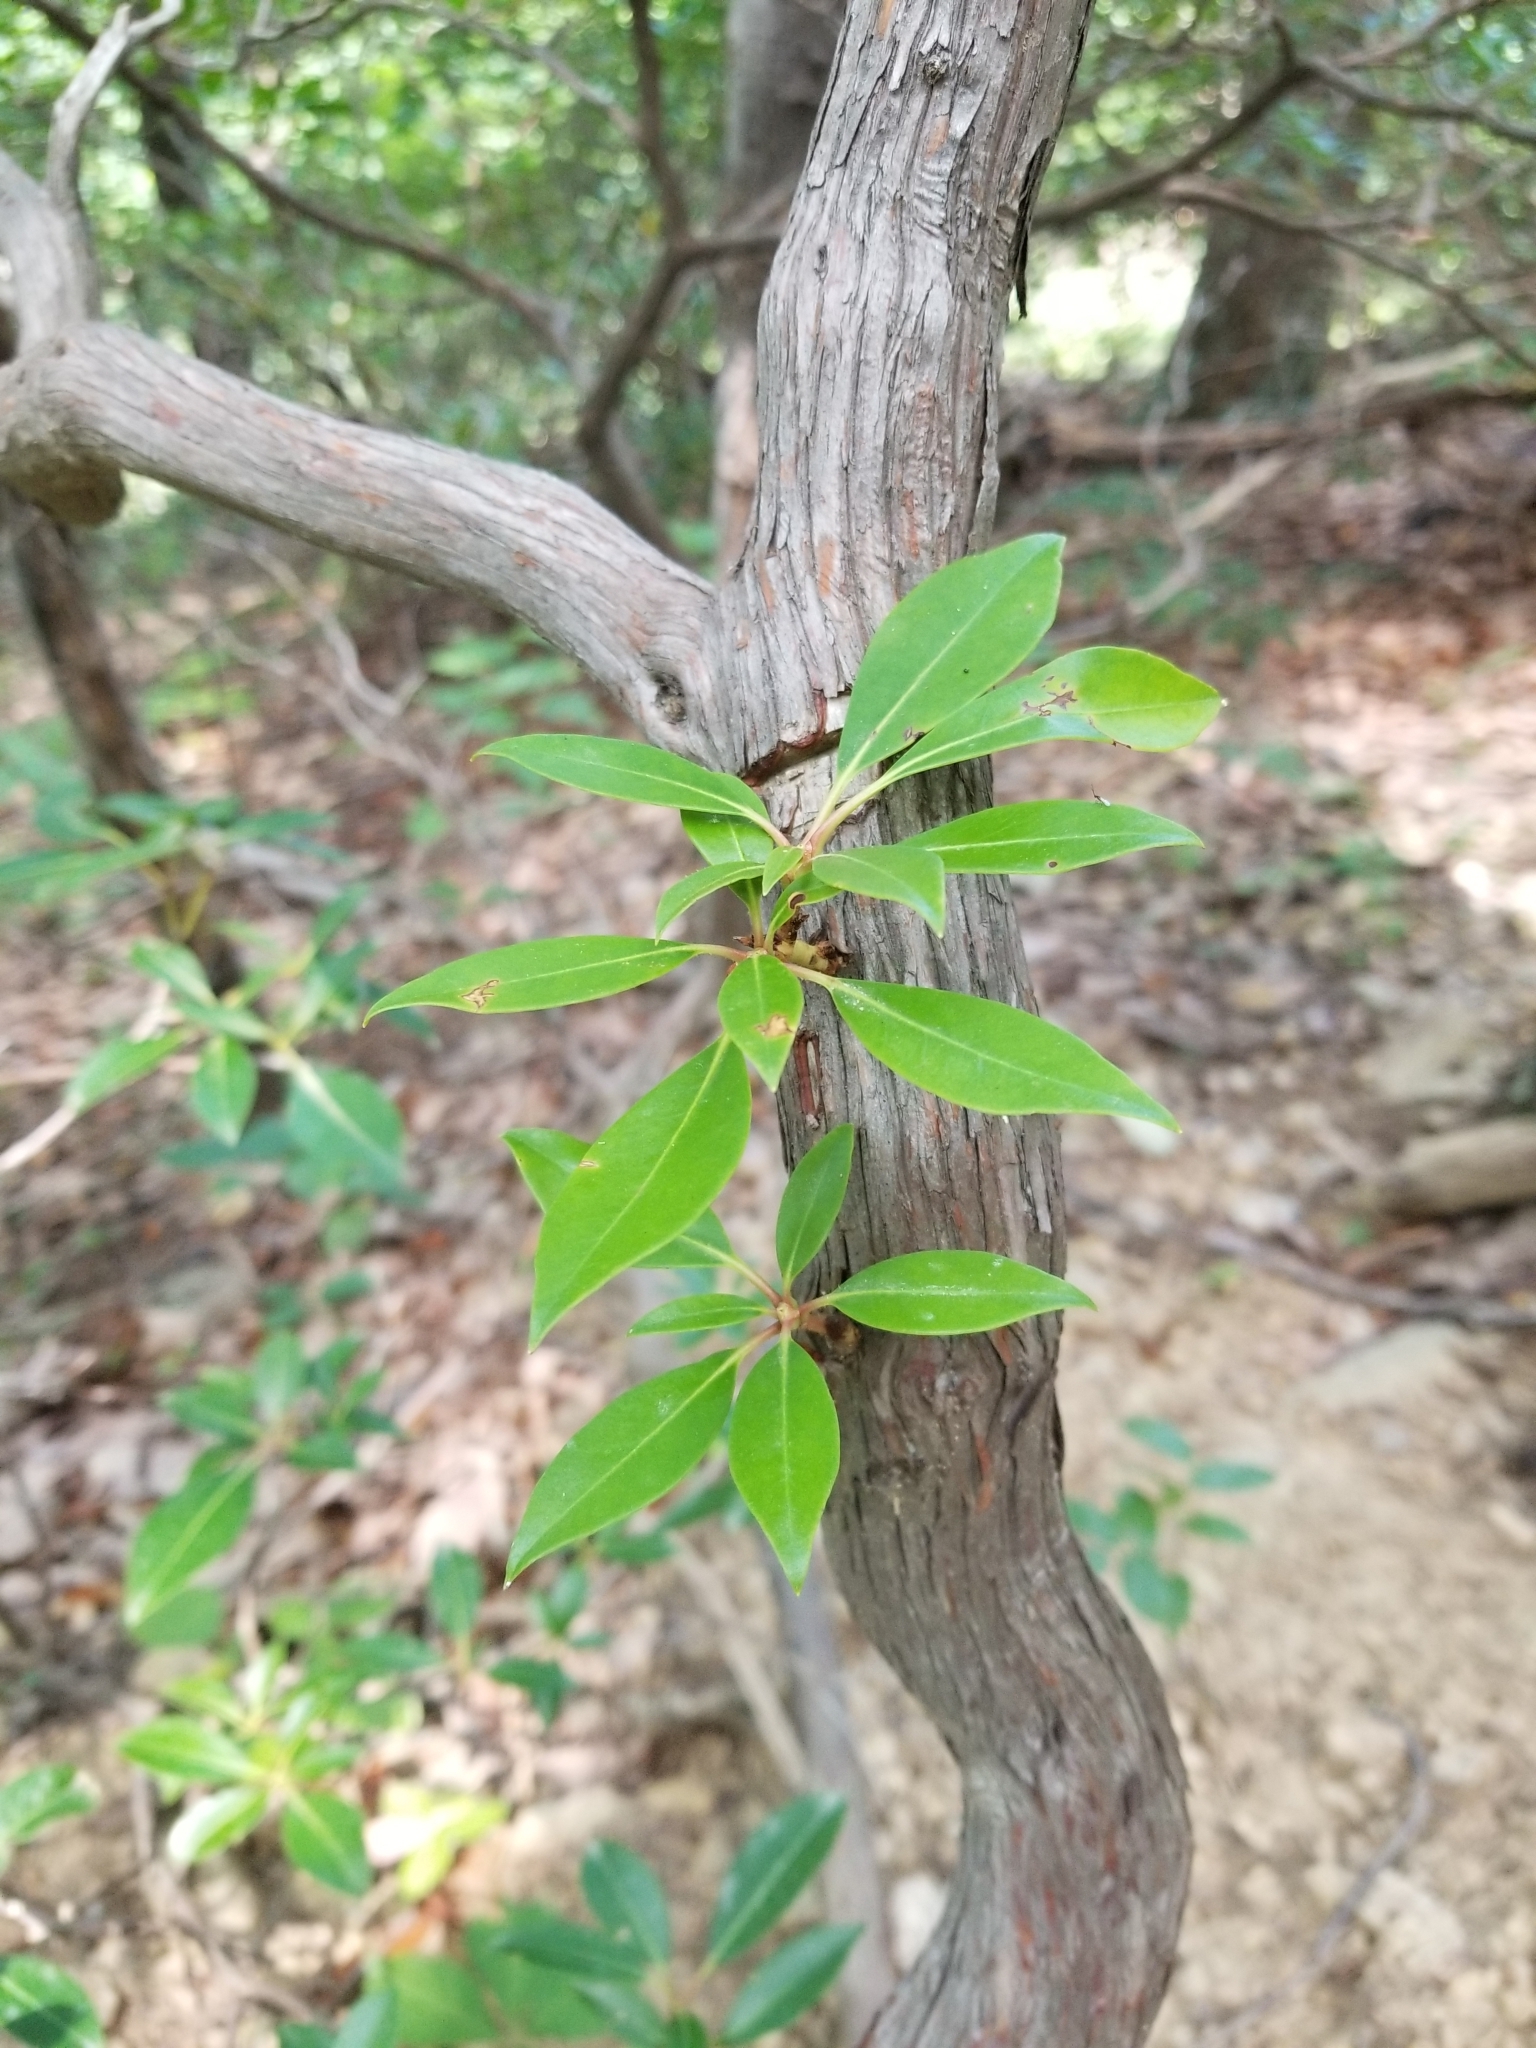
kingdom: Plantae
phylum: Tracheophyta
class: Magnoliopsida
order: Ericales
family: Ericaceae
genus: Kalmia
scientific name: Kalmia latifolia
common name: Mountain-laurel
